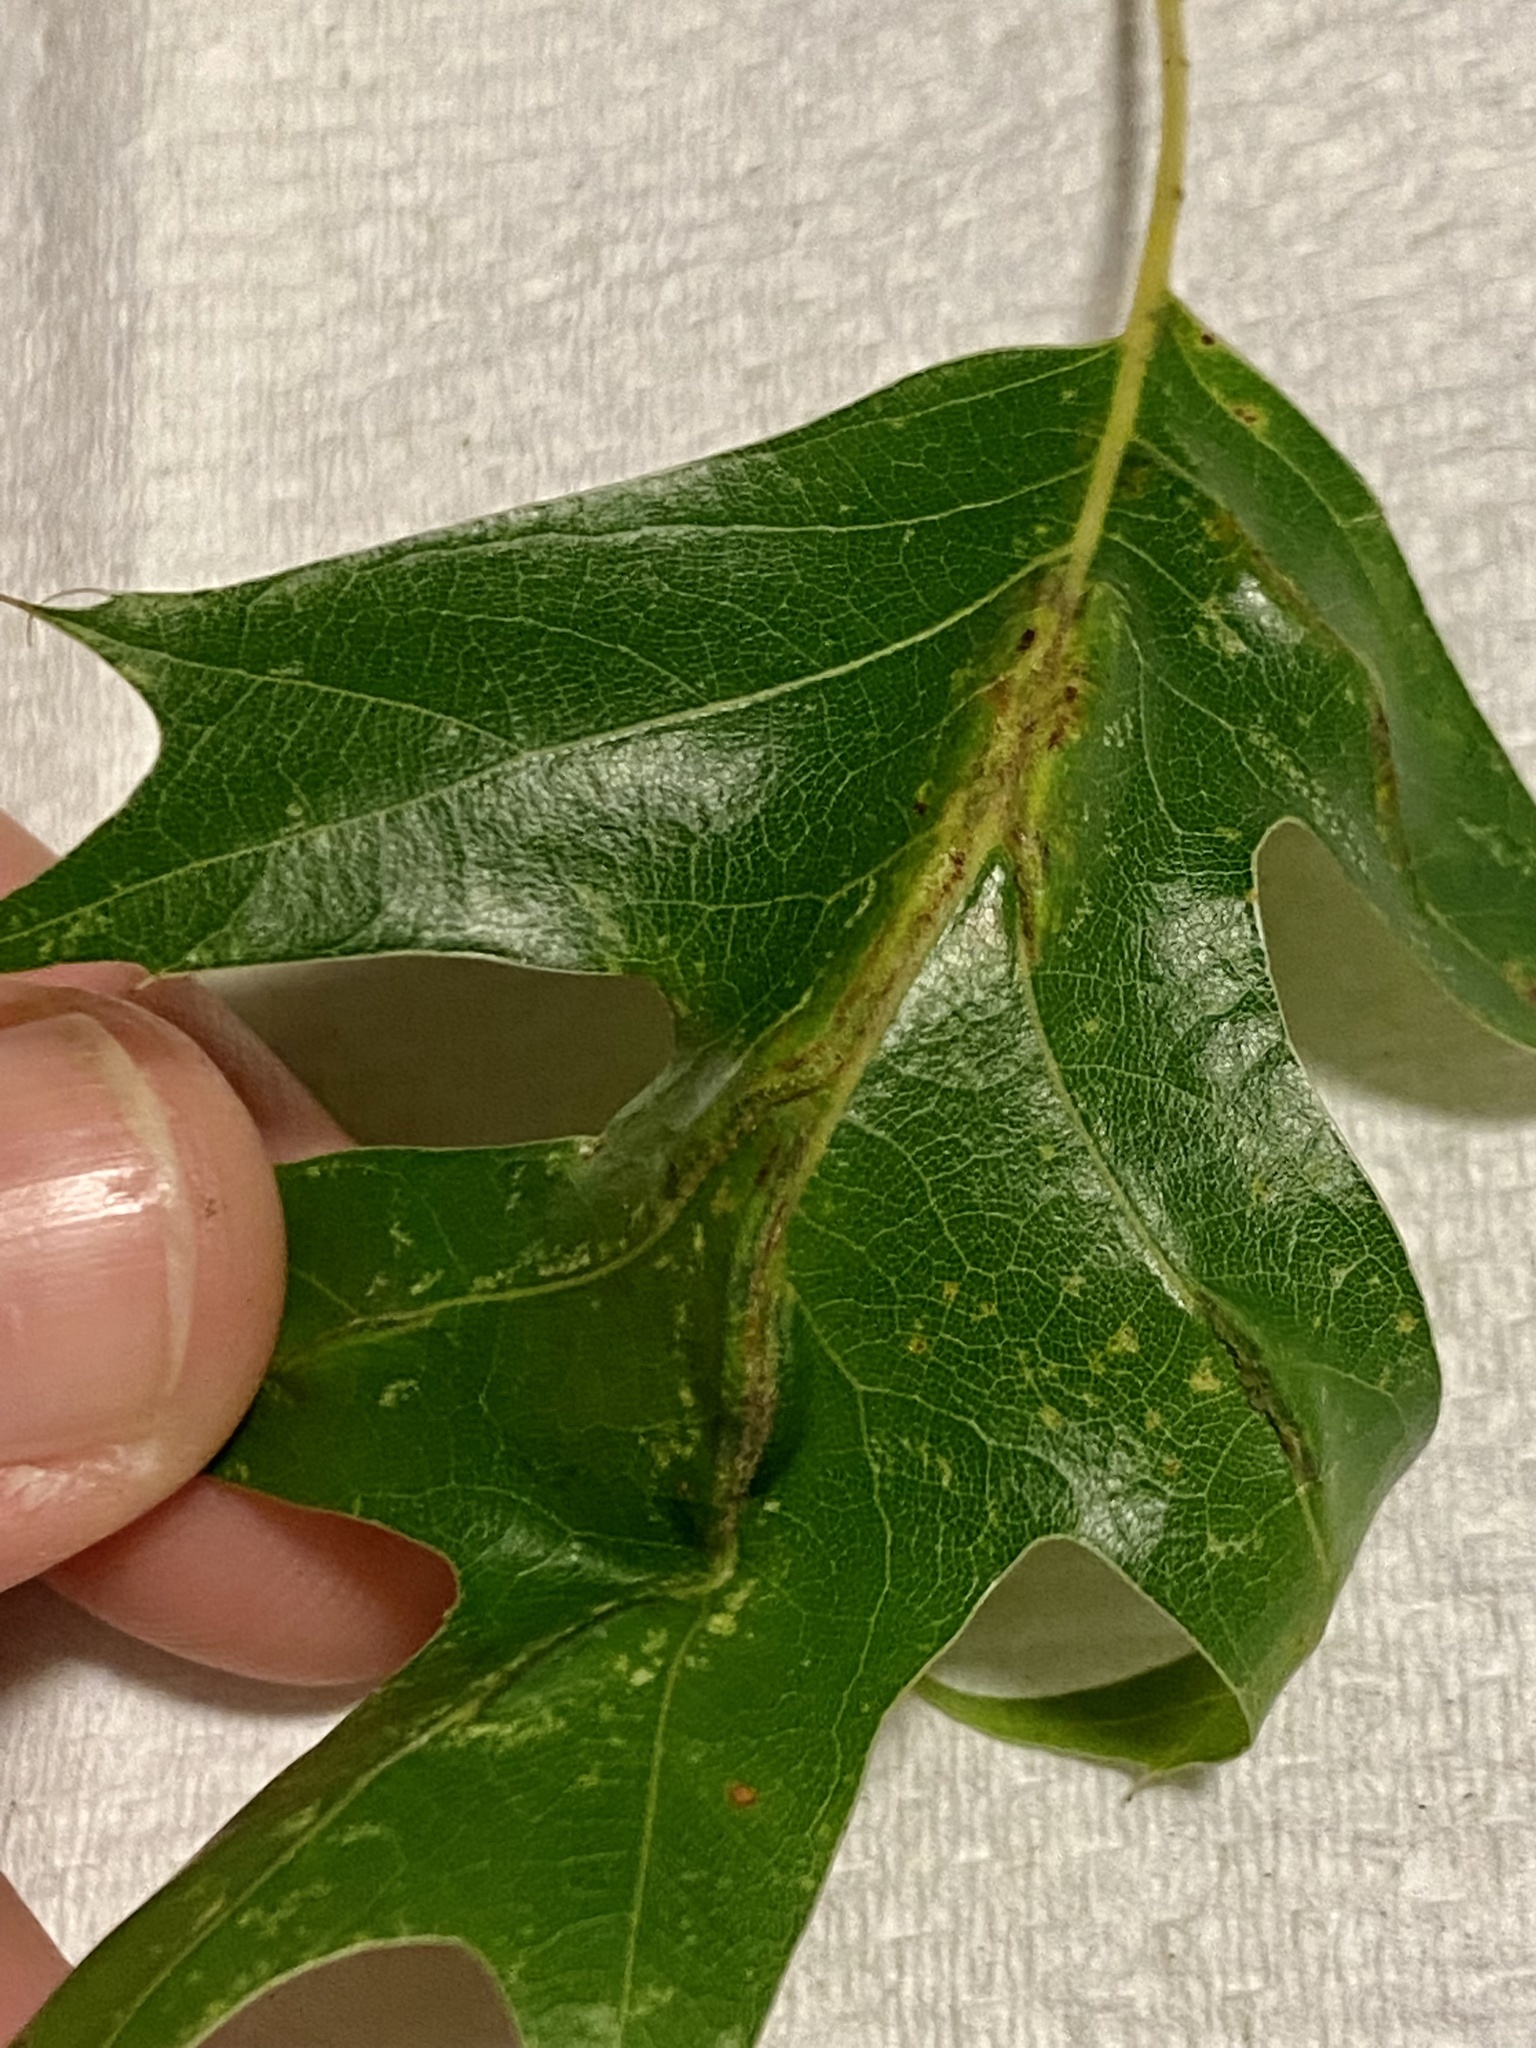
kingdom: Animalia
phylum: Arthropoda
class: Insecta
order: Diptera
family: Cecidomyiidae
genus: Macrodiplosis
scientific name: Macrodiplosis q-orucum
